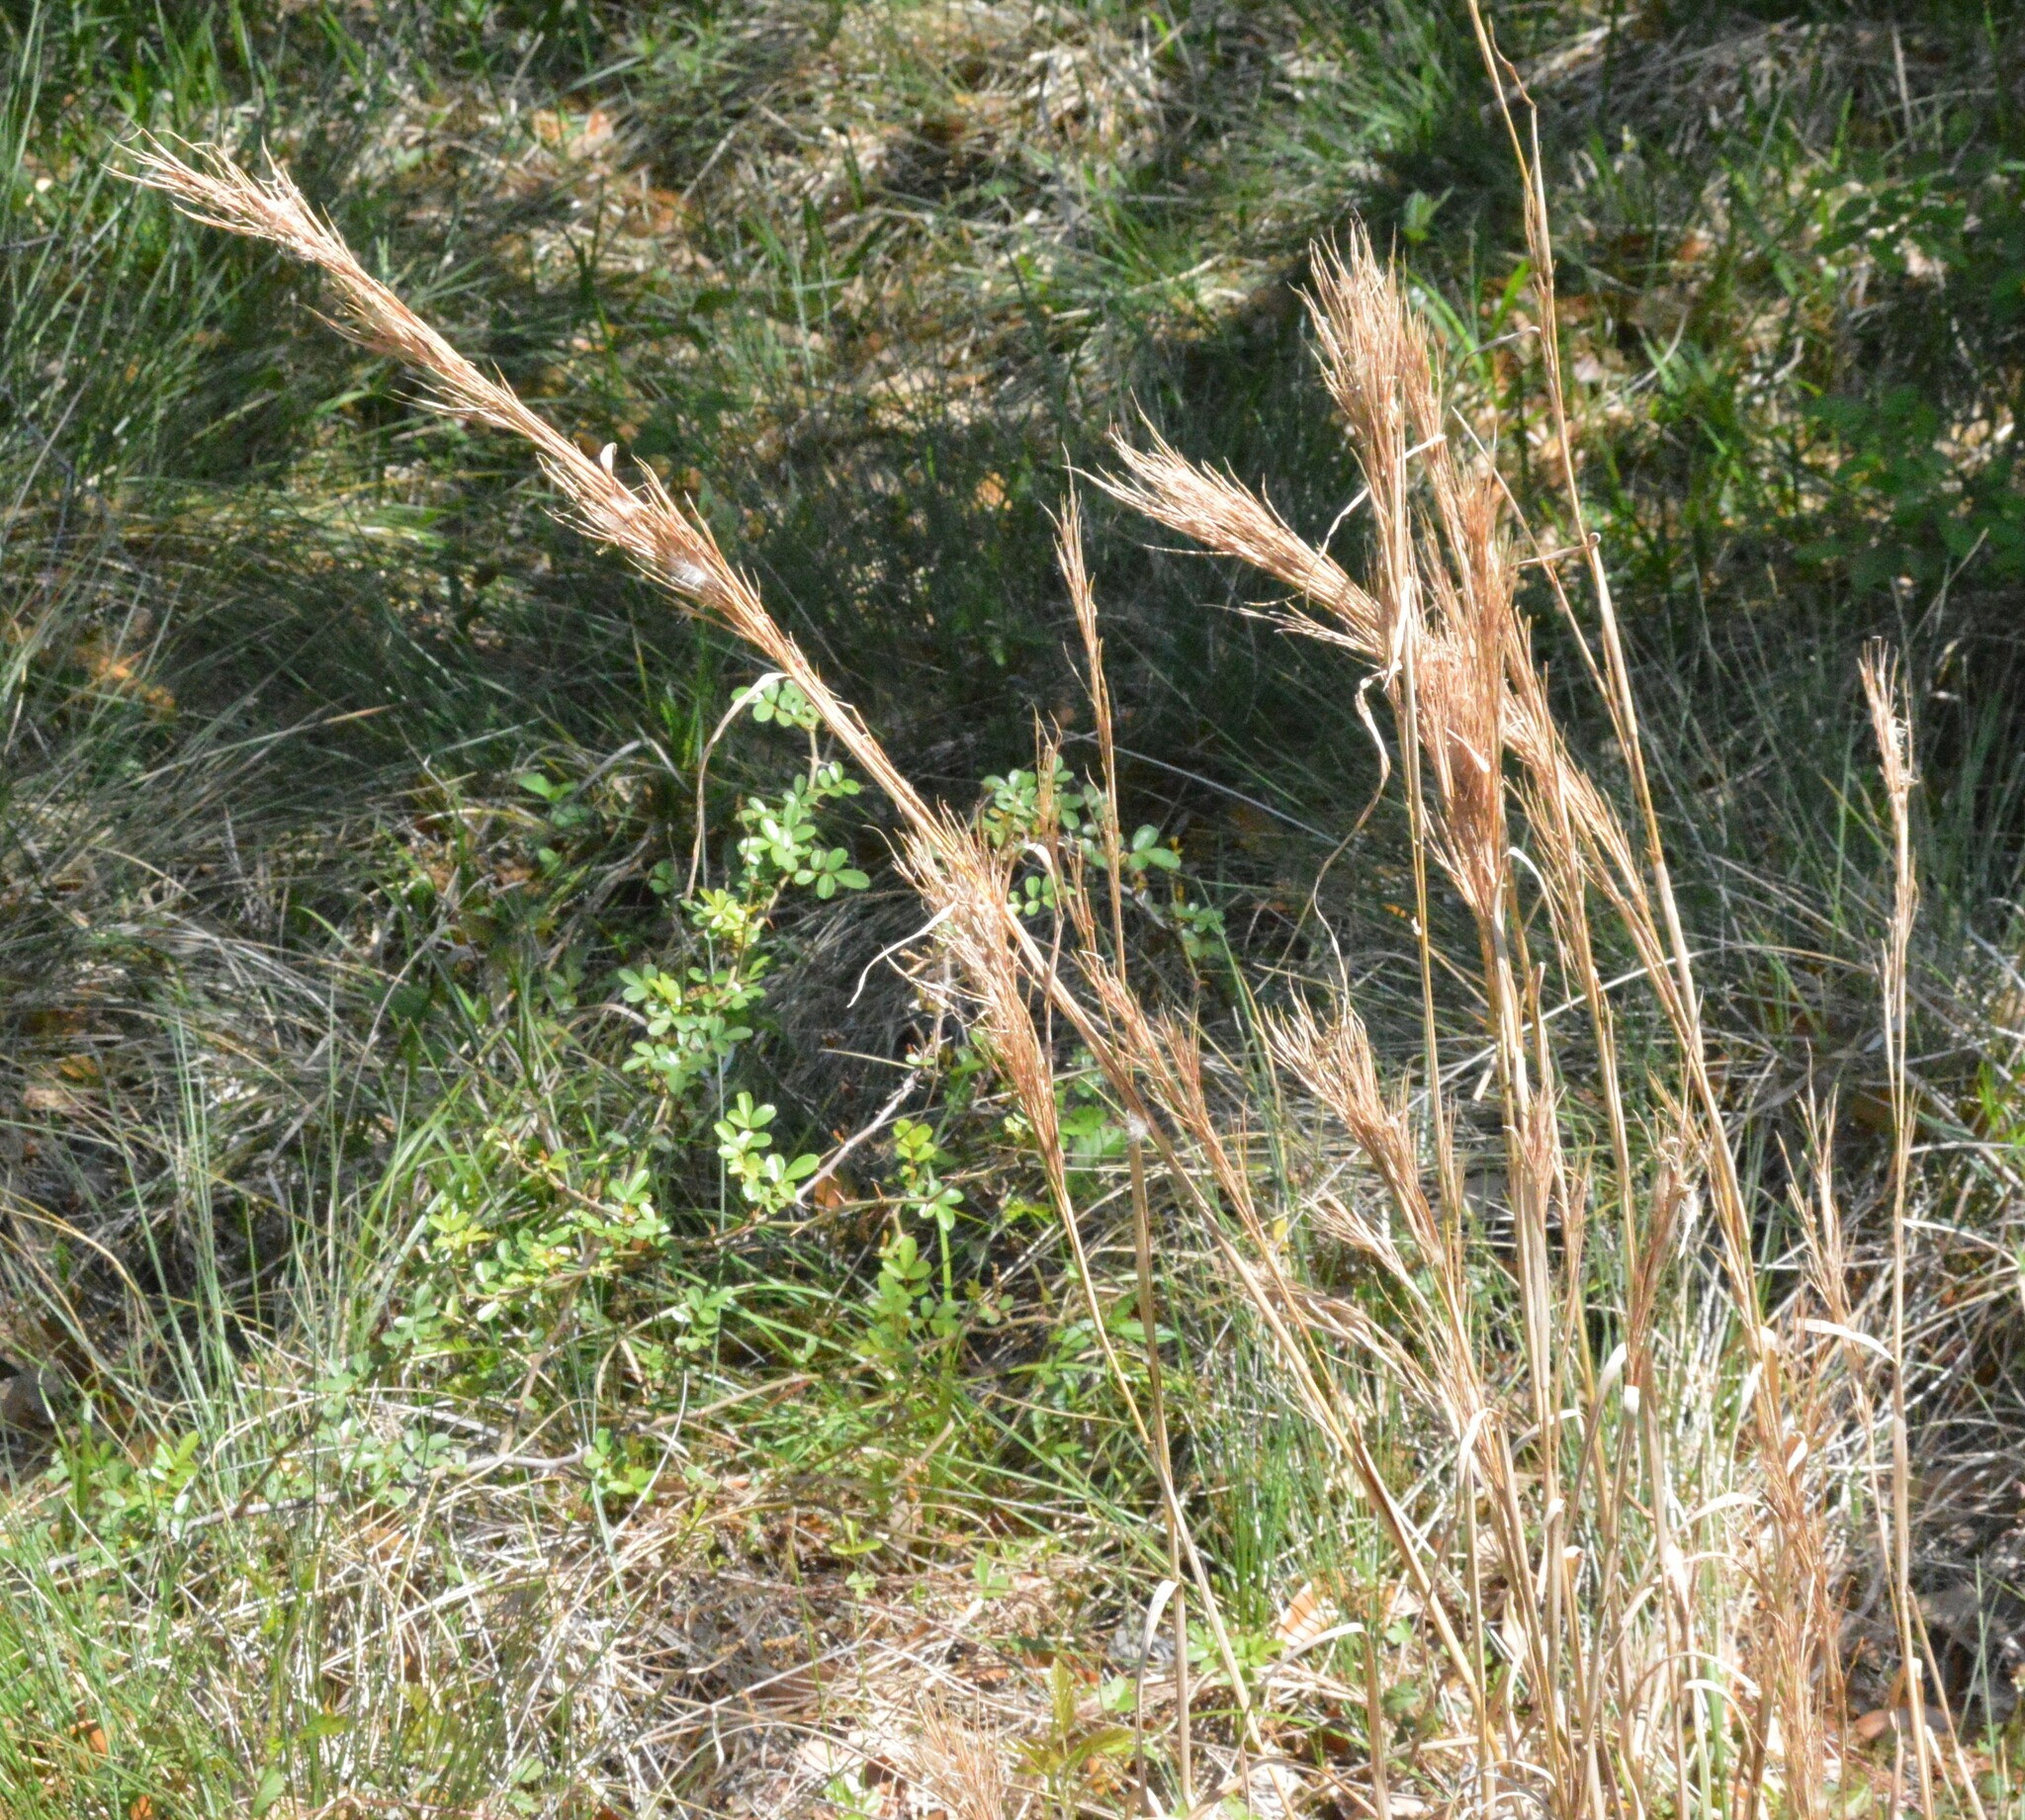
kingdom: Plantae
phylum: Tracheophyta
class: Liliopsida
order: Poales
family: Poaceae
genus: Andropogon
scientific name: Andropogon tenuispatheus
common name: Bushy bluestem
